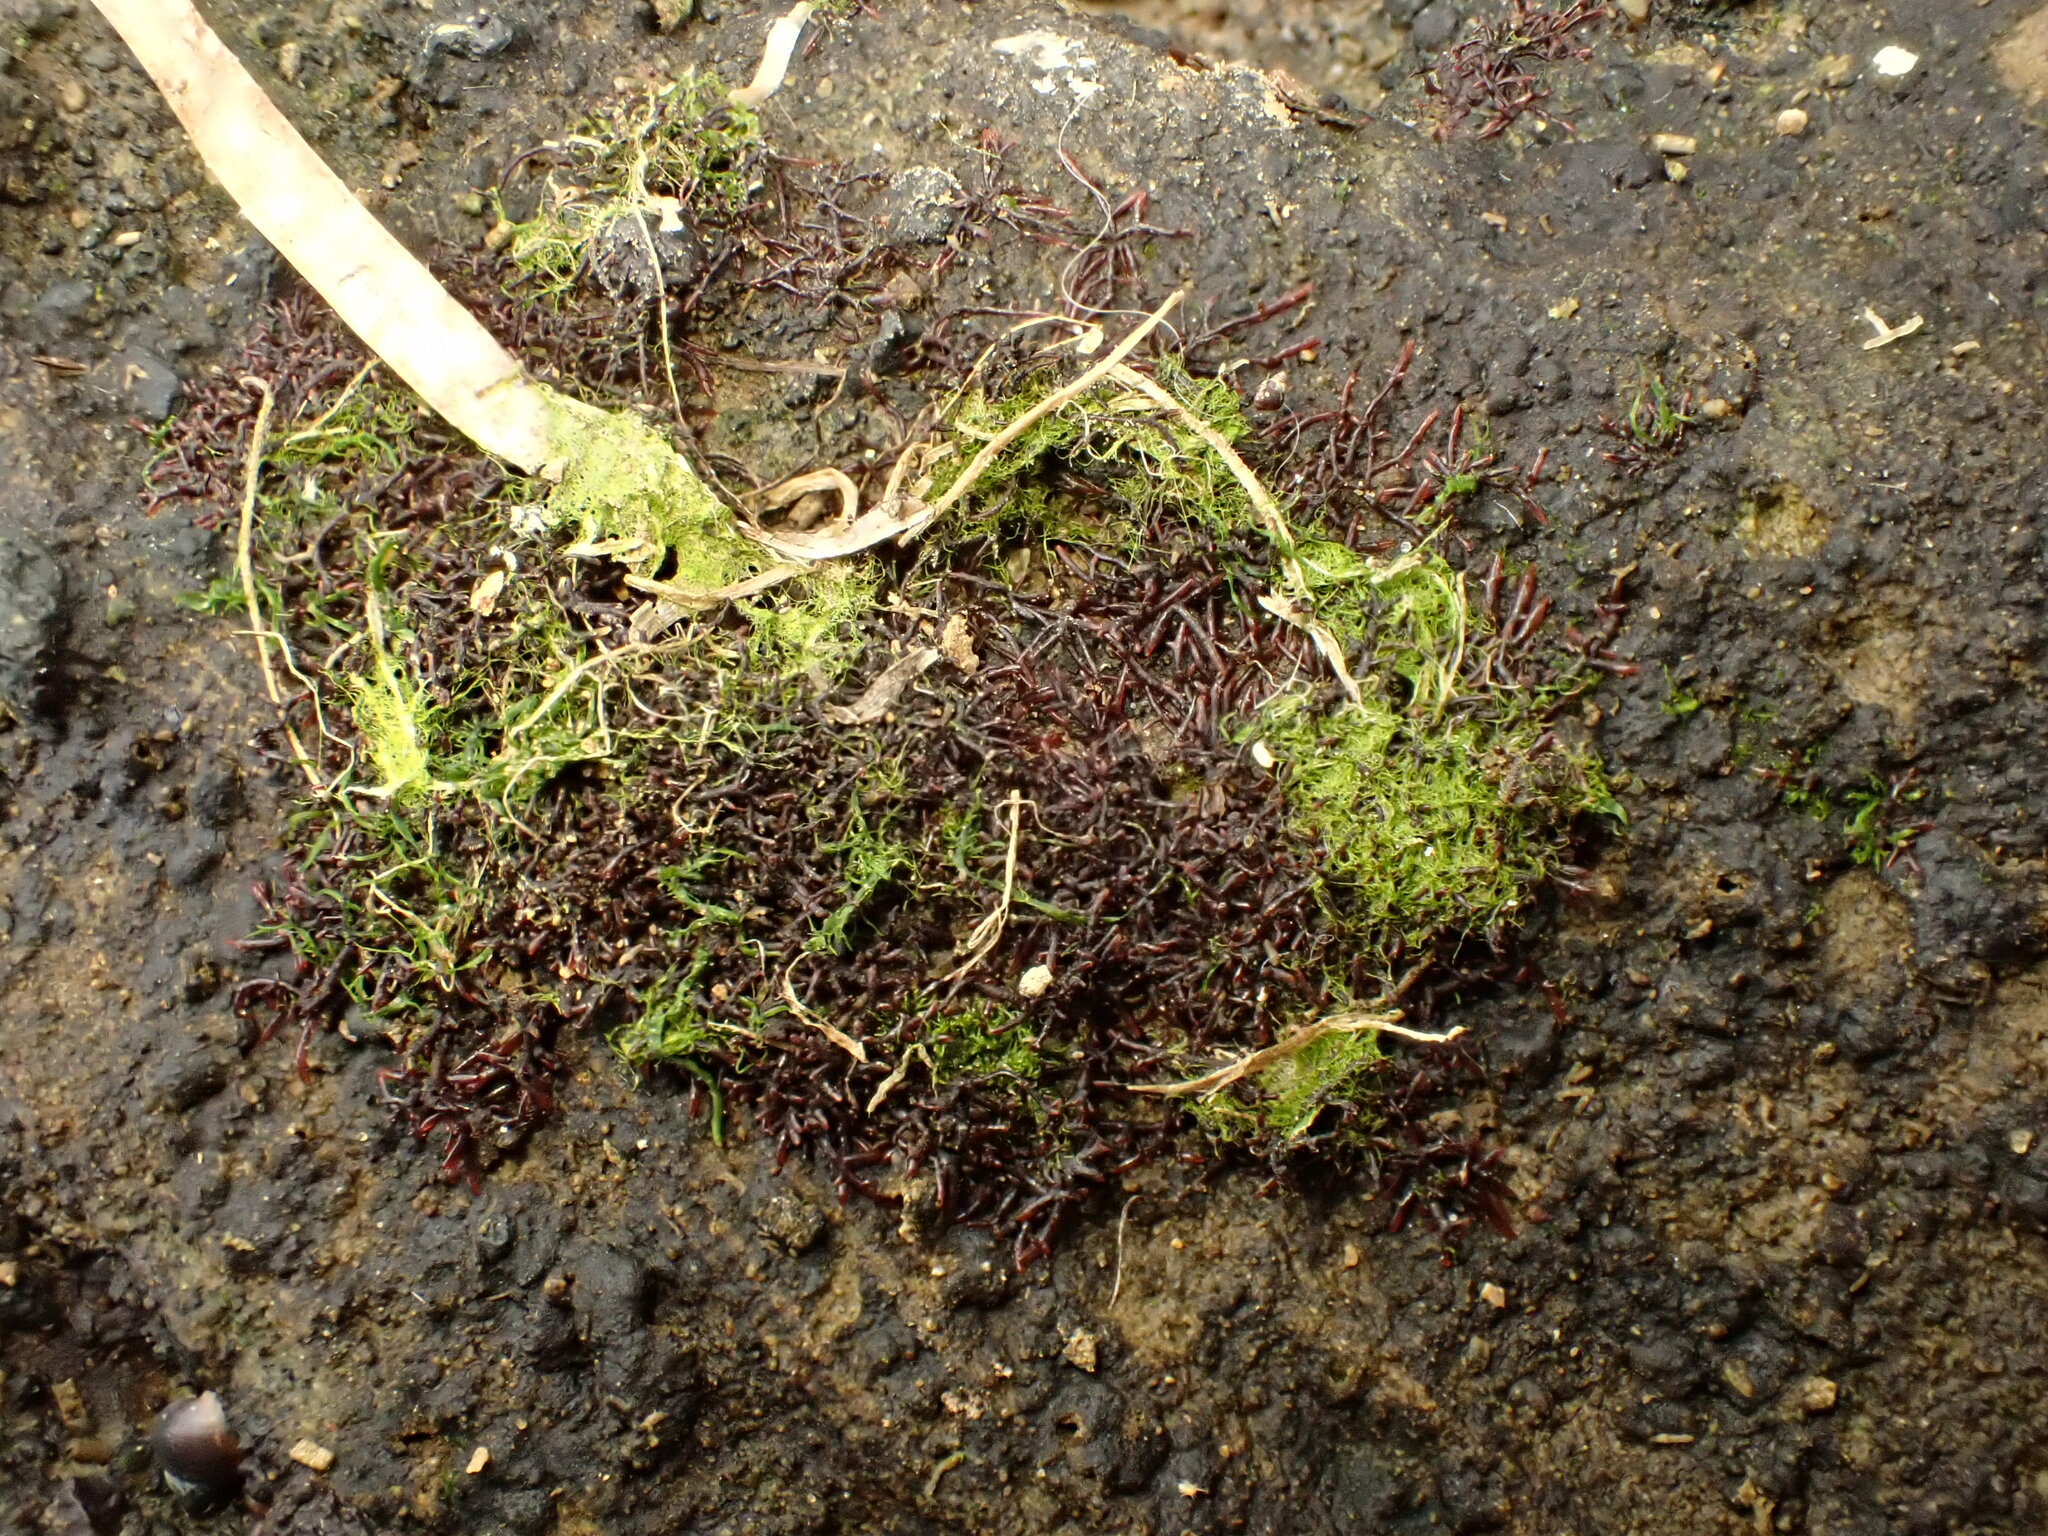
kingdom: Plantae
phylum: Rhodophyta
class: Florideophyceae
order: Gelidiales
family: Gelidiaceae
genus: Capreolia
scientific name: Capreolia implexa
